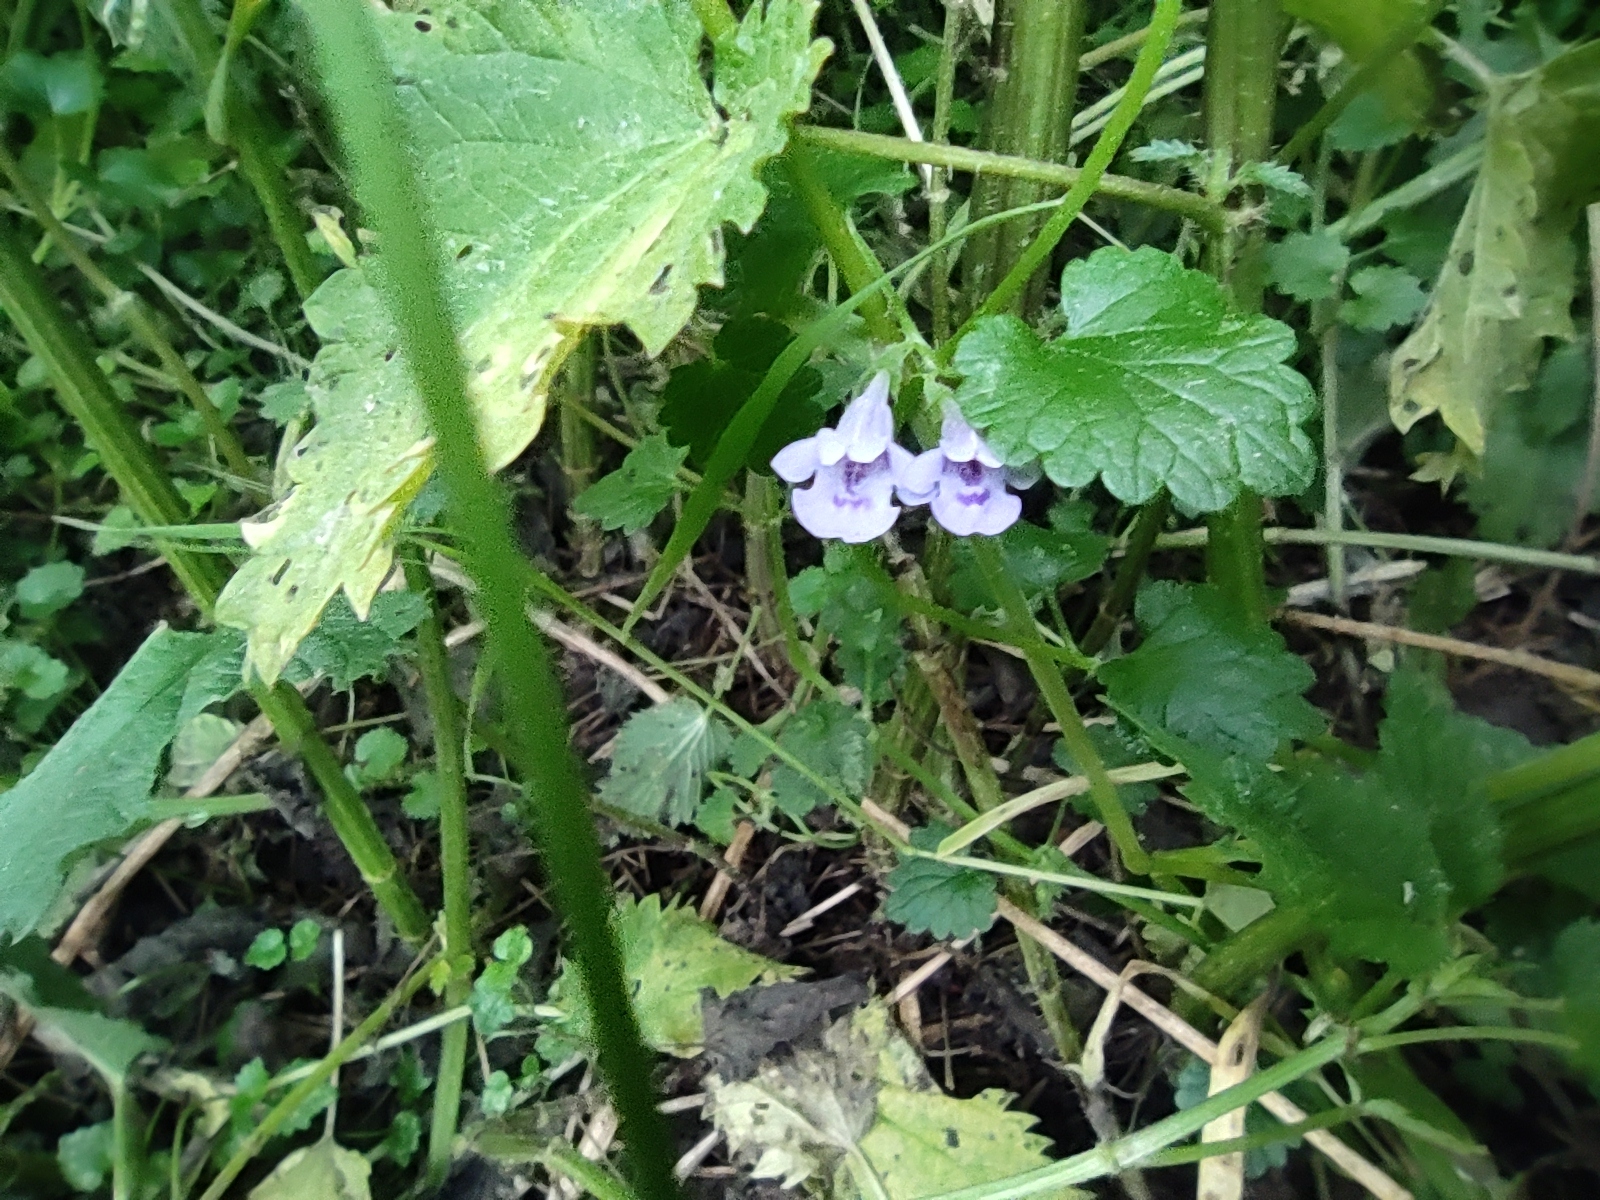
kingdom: Plantae
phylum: Tracheophyta
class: Magnoliopsida
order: Lamiales
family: Lamiaceae
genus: Glechoma
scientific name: Glechoma hederacea
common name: Ground ivy
